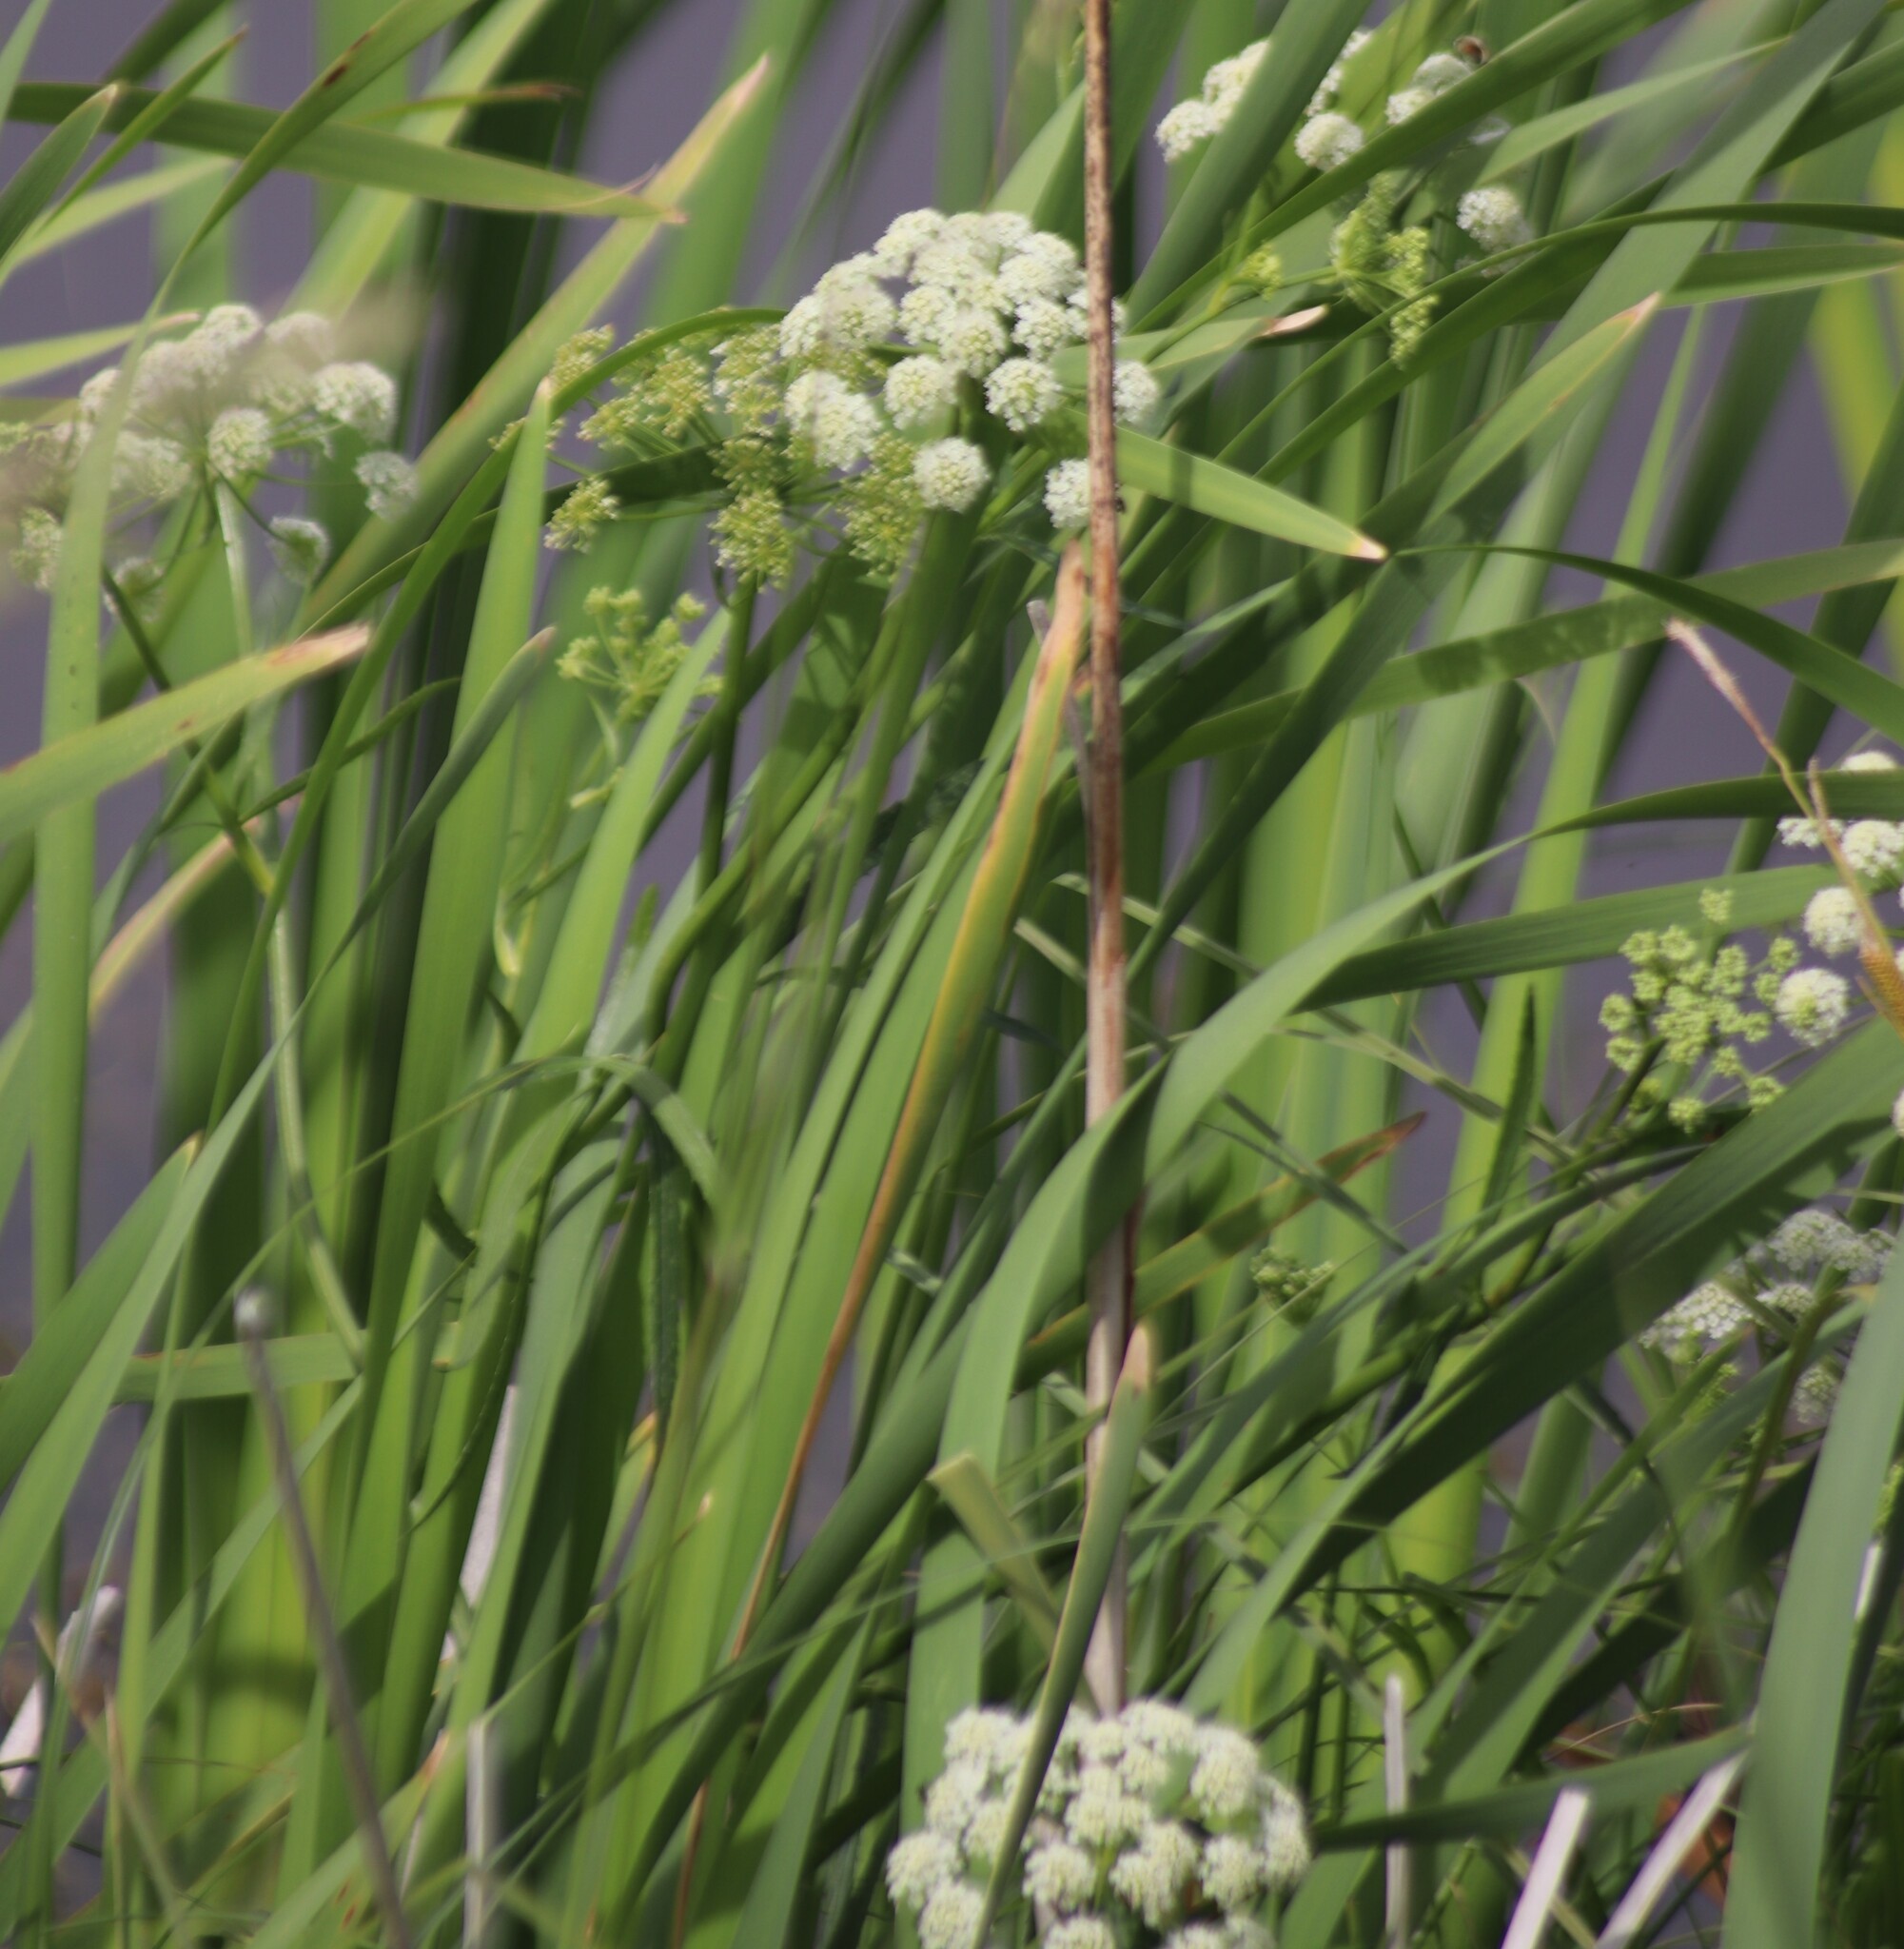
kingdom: Plantae
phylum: Tracheophyta
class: Magnoliopsida
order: Apiales
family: Apiaceae
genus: Sium
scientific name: Sium suave
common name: Hemlock water-parsnip
